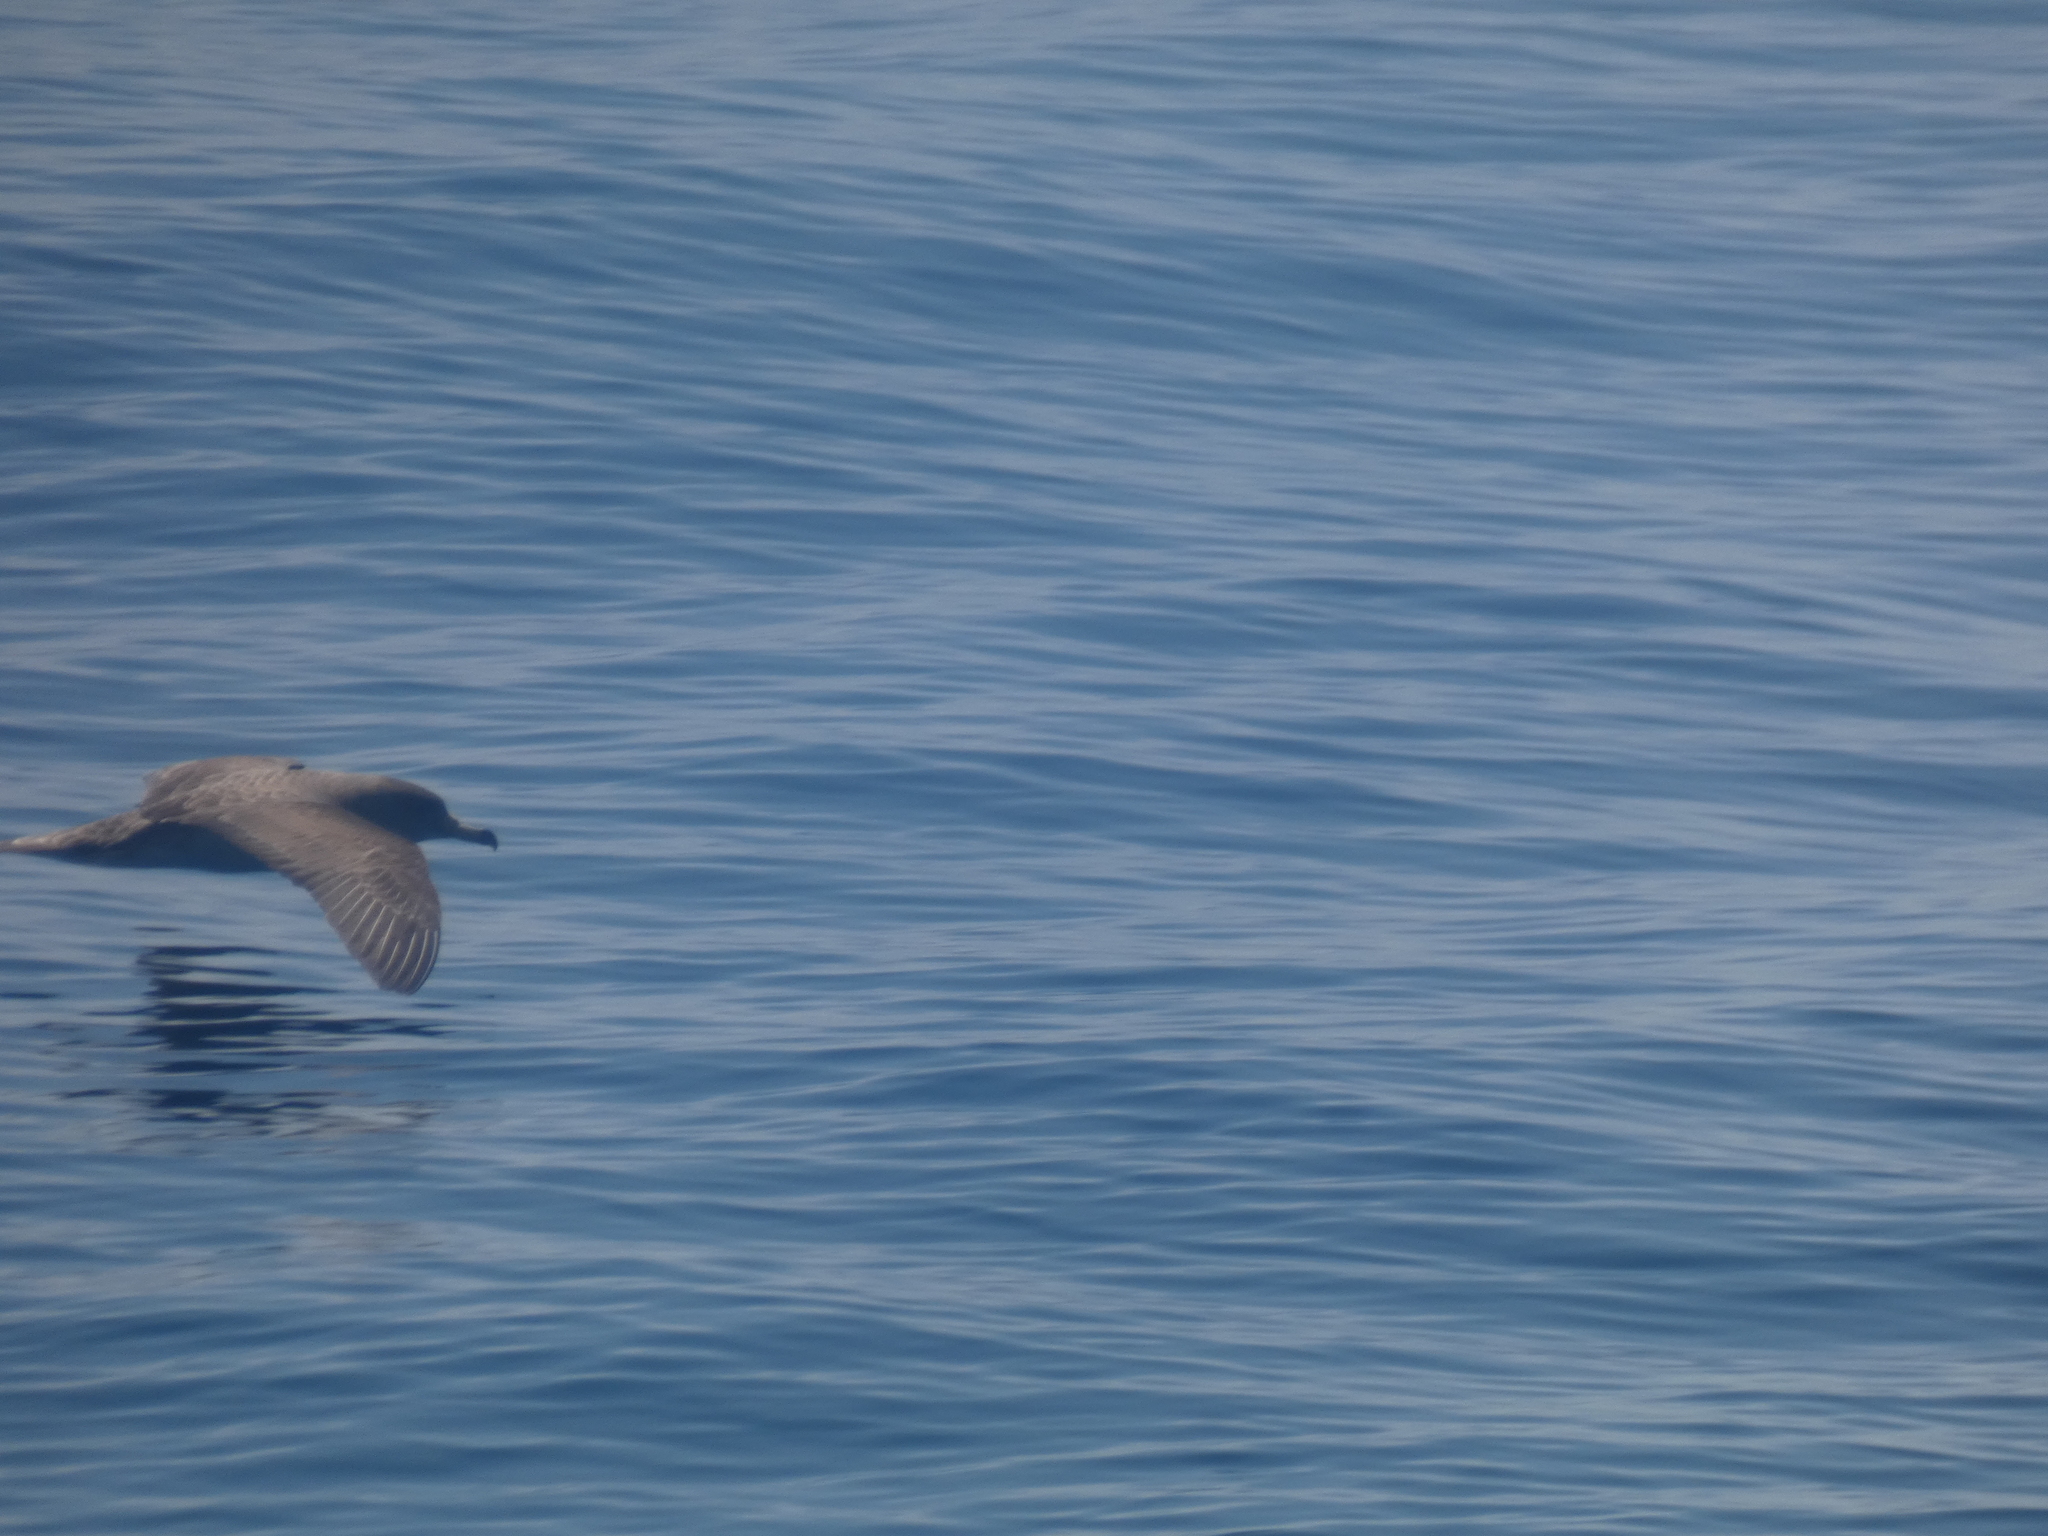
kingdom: Animalia
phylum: Chordata
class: Aves
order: Procellariiformes
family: Procellariidae
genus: Calonectris
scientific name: Calonectris diomedea
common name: Cory's shearwater
